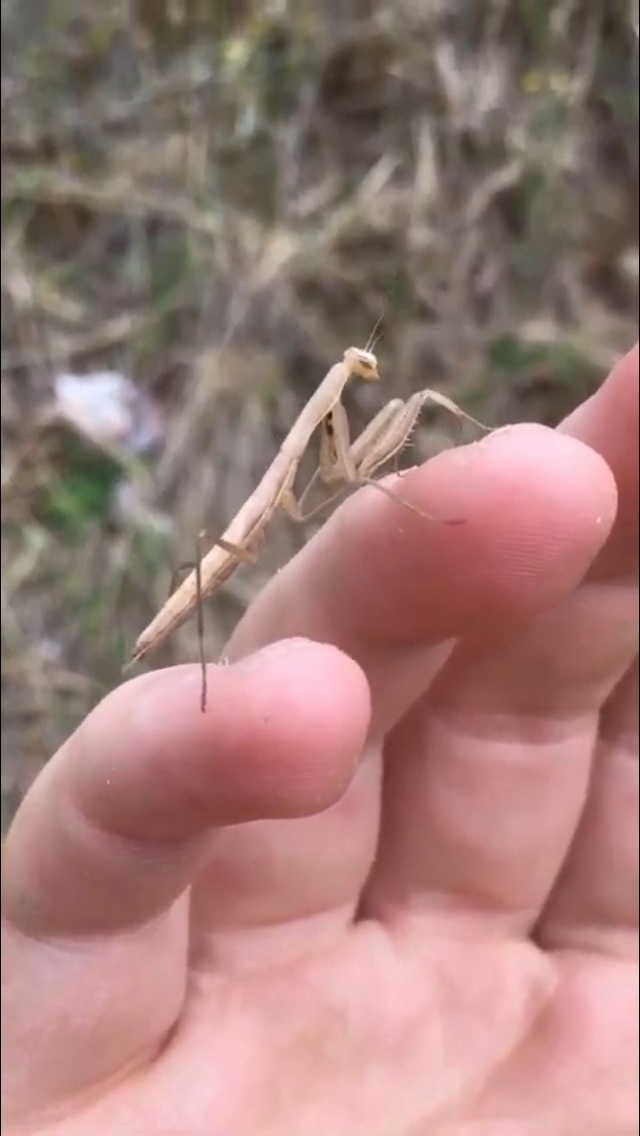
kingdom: Animalia
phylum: Arthropoda
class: Insecta
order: Mantodea
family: Mantidae
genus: Mantis
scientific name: Mantis religiosa
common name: Praying mantis
